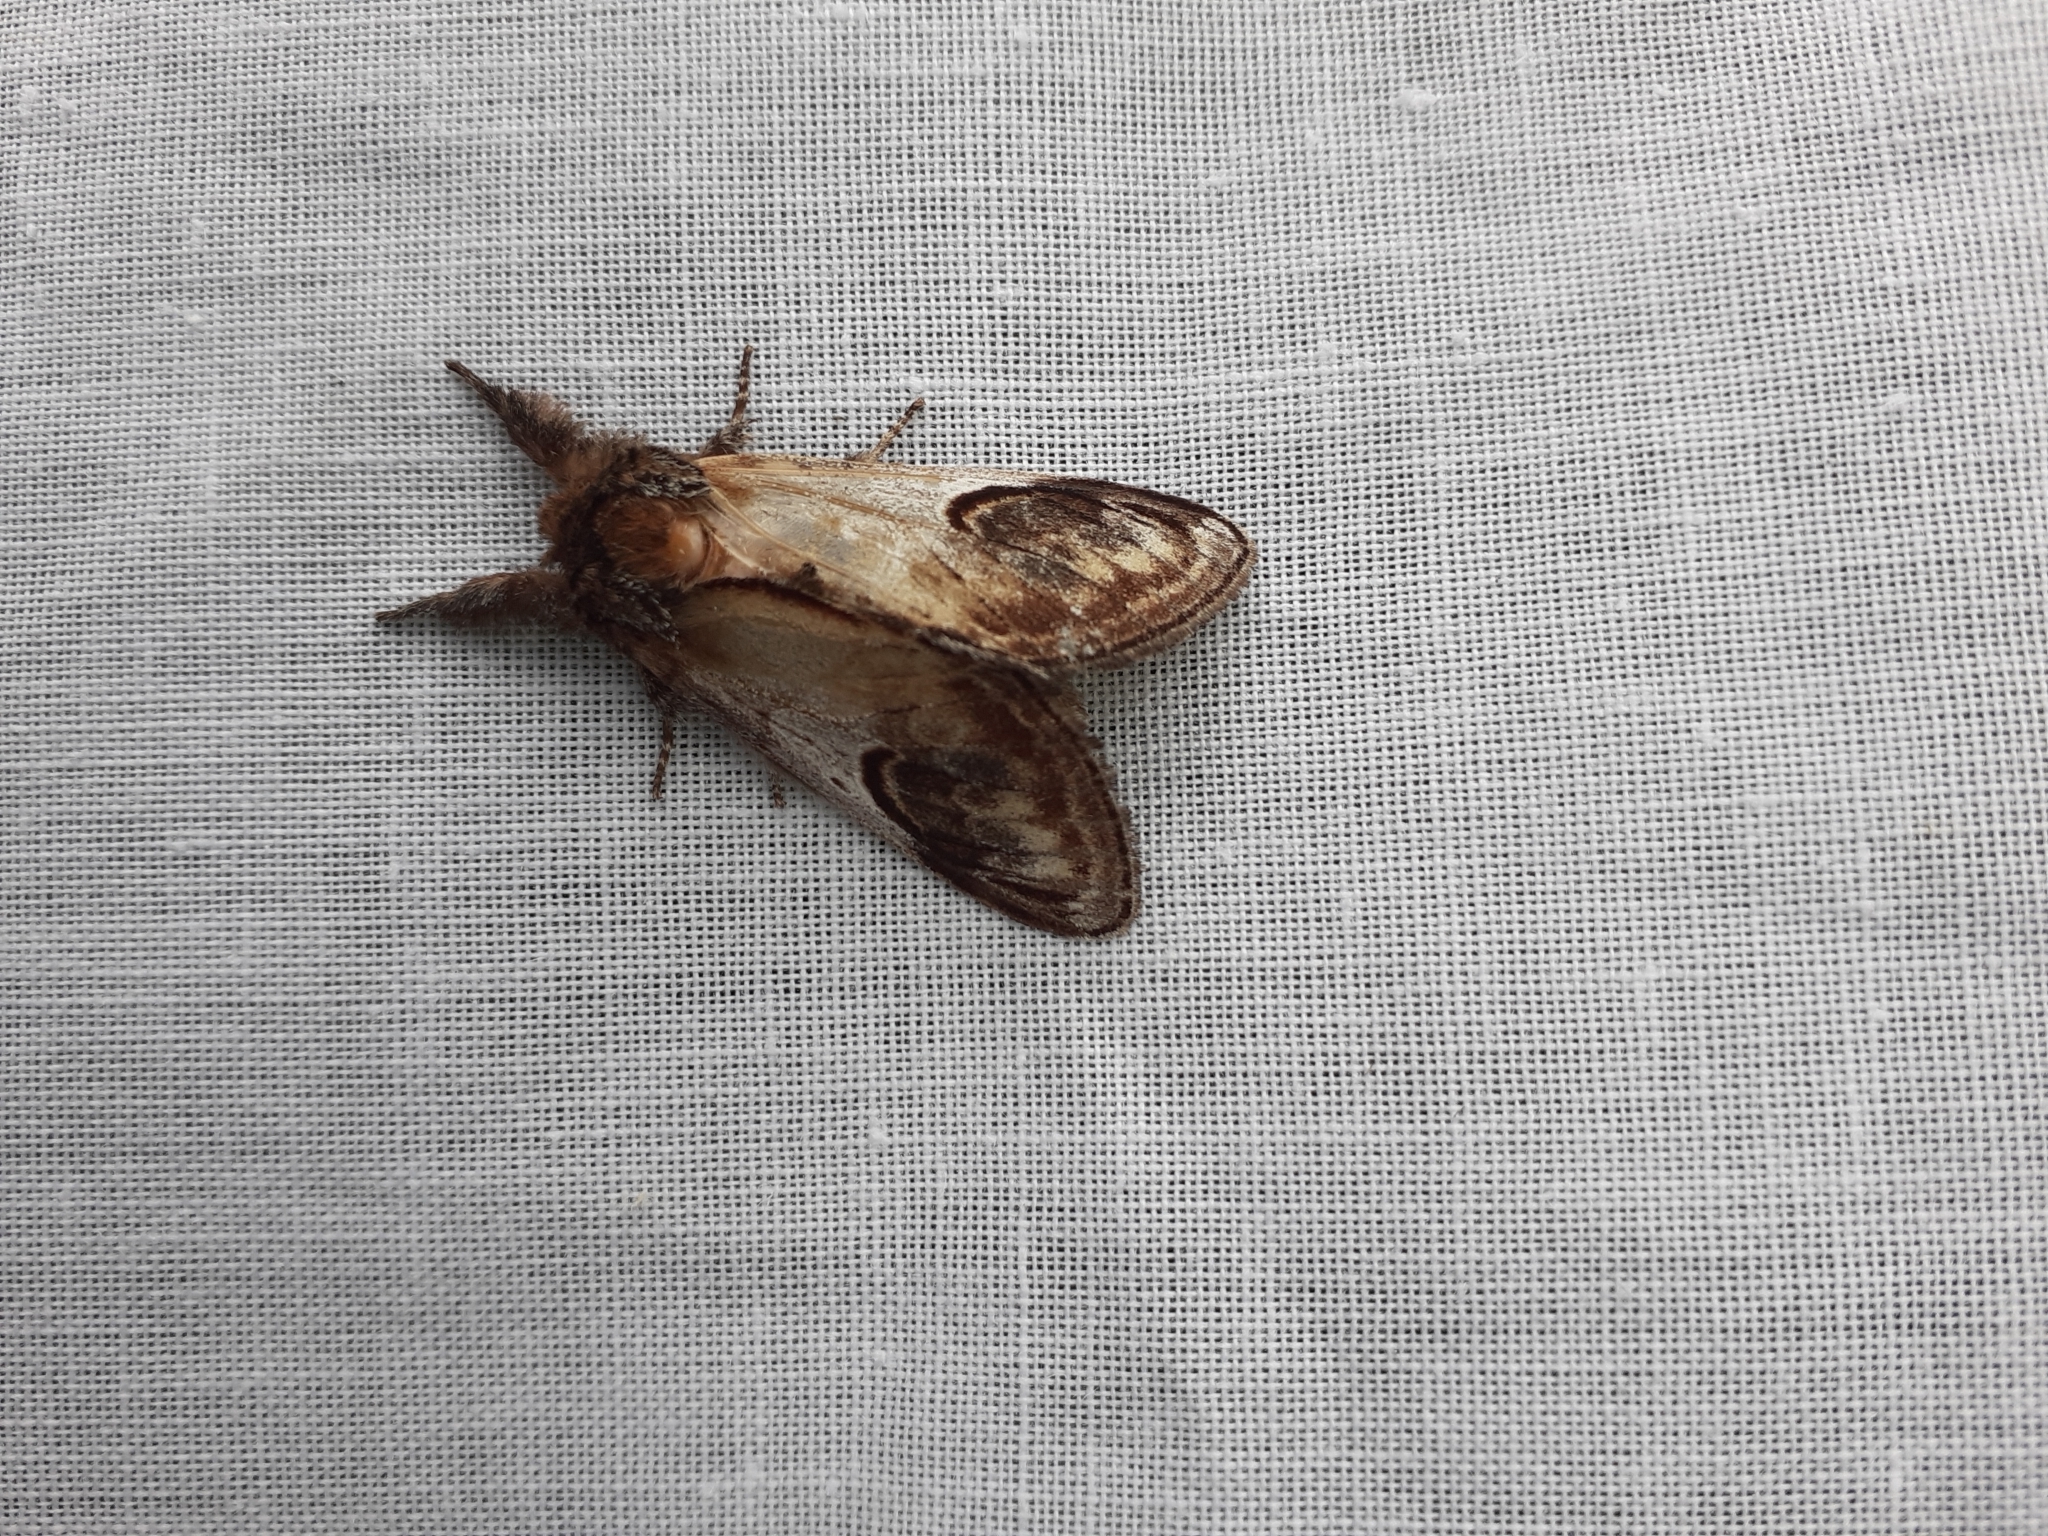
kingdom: Animalia
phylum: Arthropoda
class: Insecta
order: Lepidoptera
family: Notodontidae
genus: Notodonta
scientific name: Notodonta ziczac
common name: Pebble prominent
